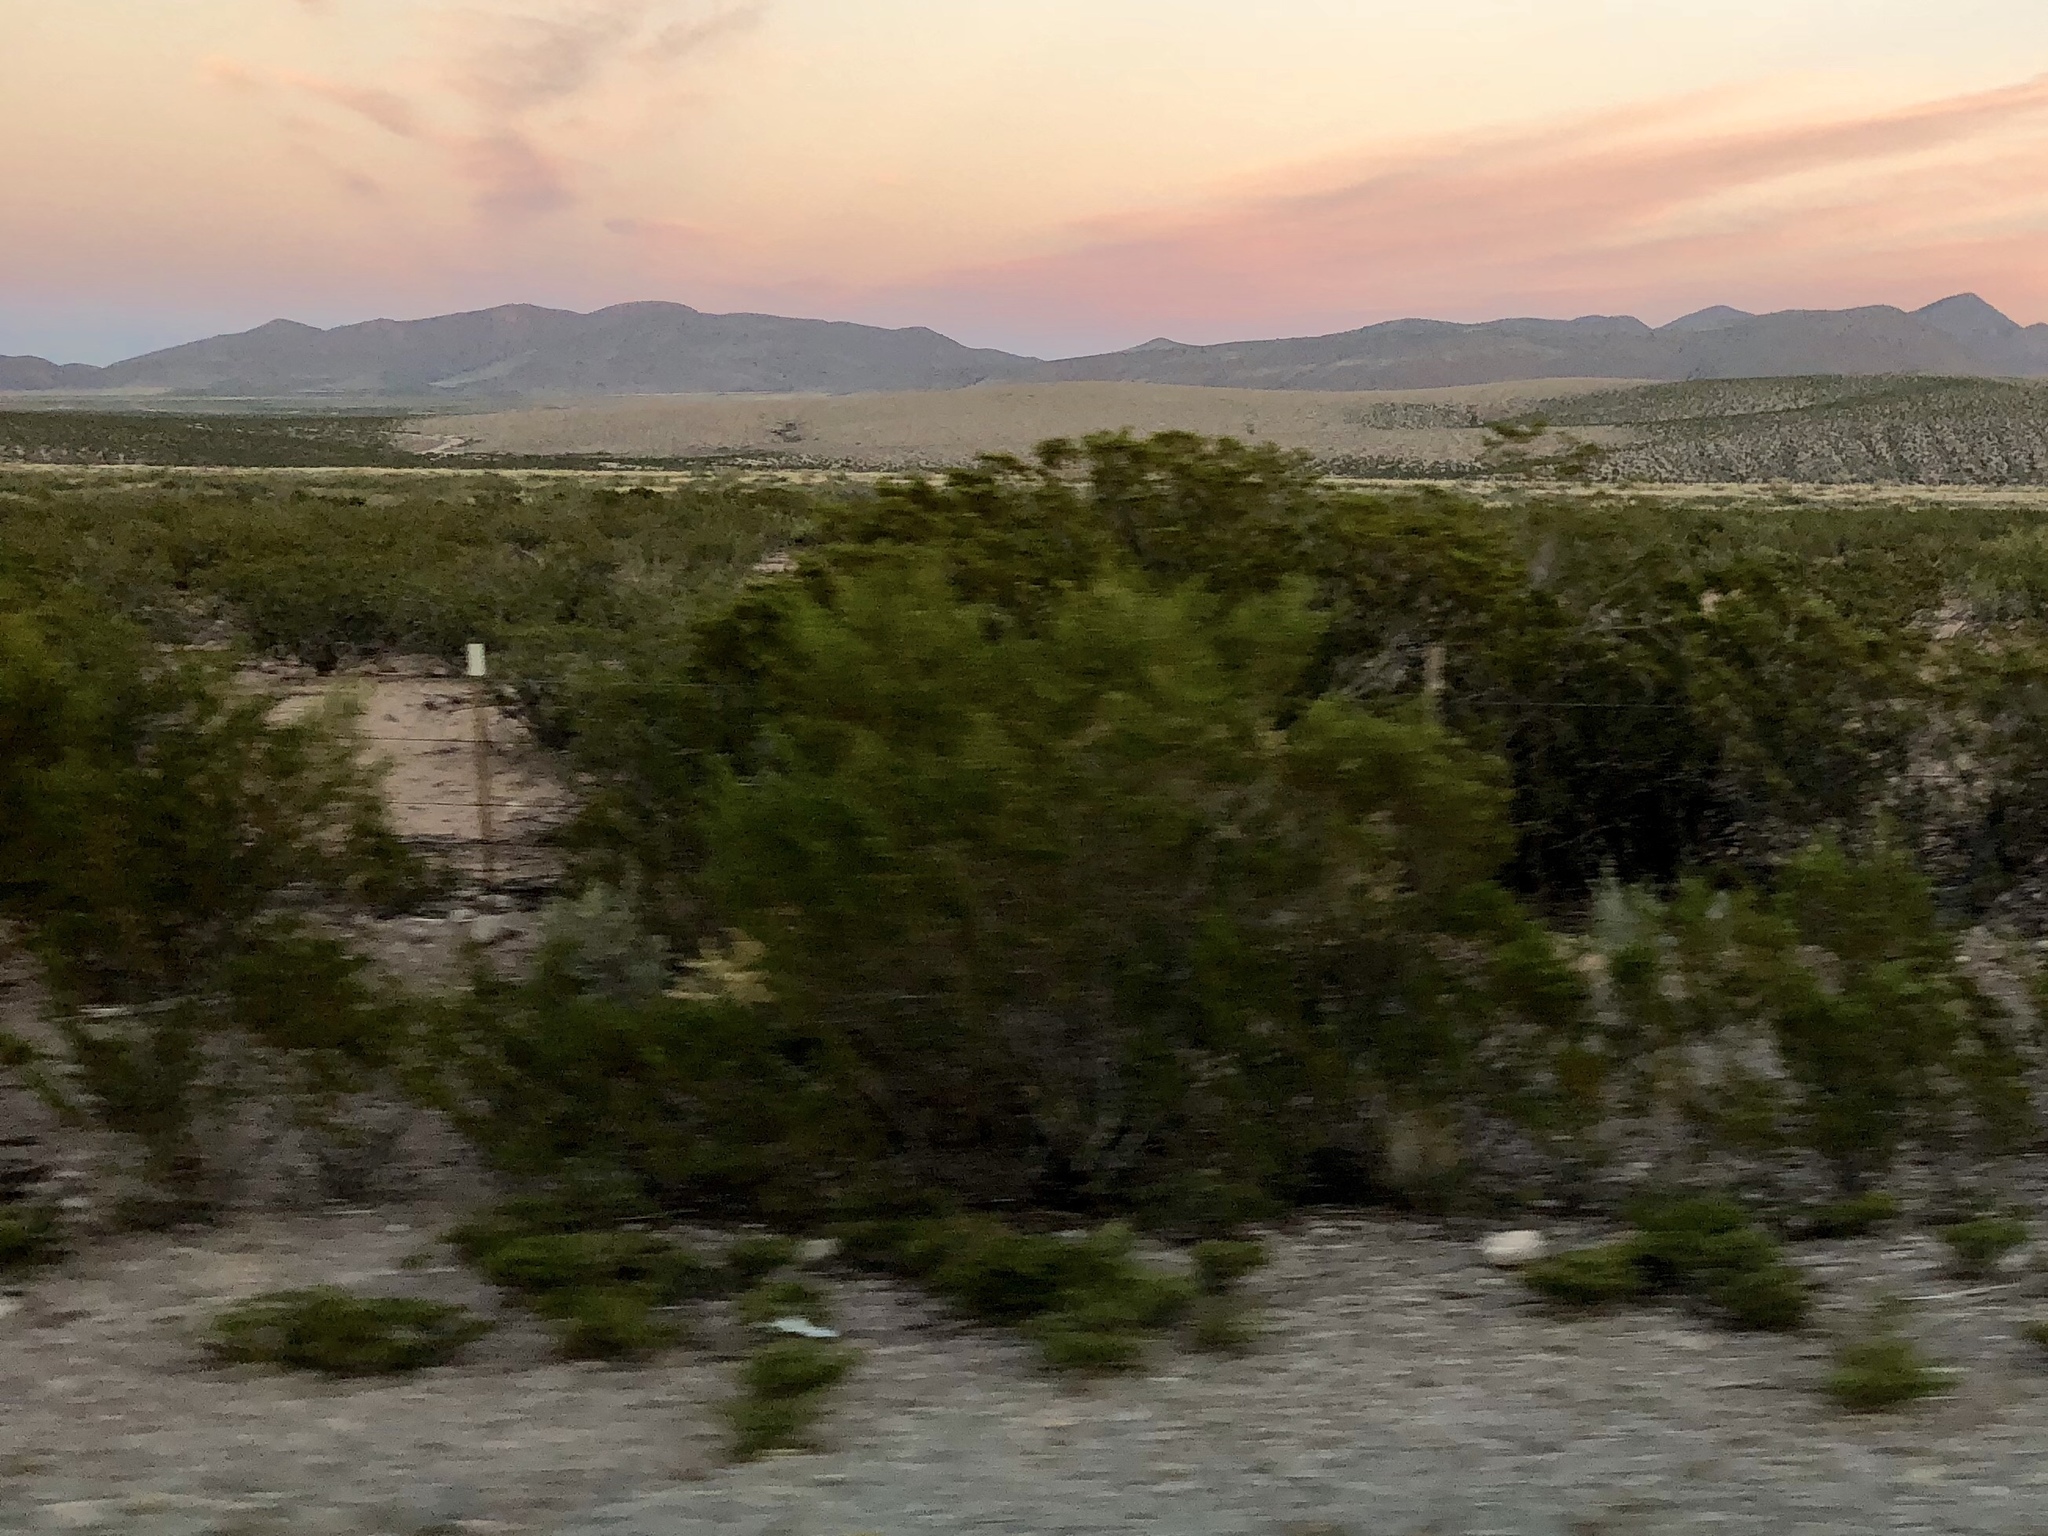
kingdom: Plantae
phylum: Tracheophyta
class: Magnoliopsida
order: Zygophyllales
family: Zygophyllaceae
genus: Larrea
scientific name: Larrea tridentata
